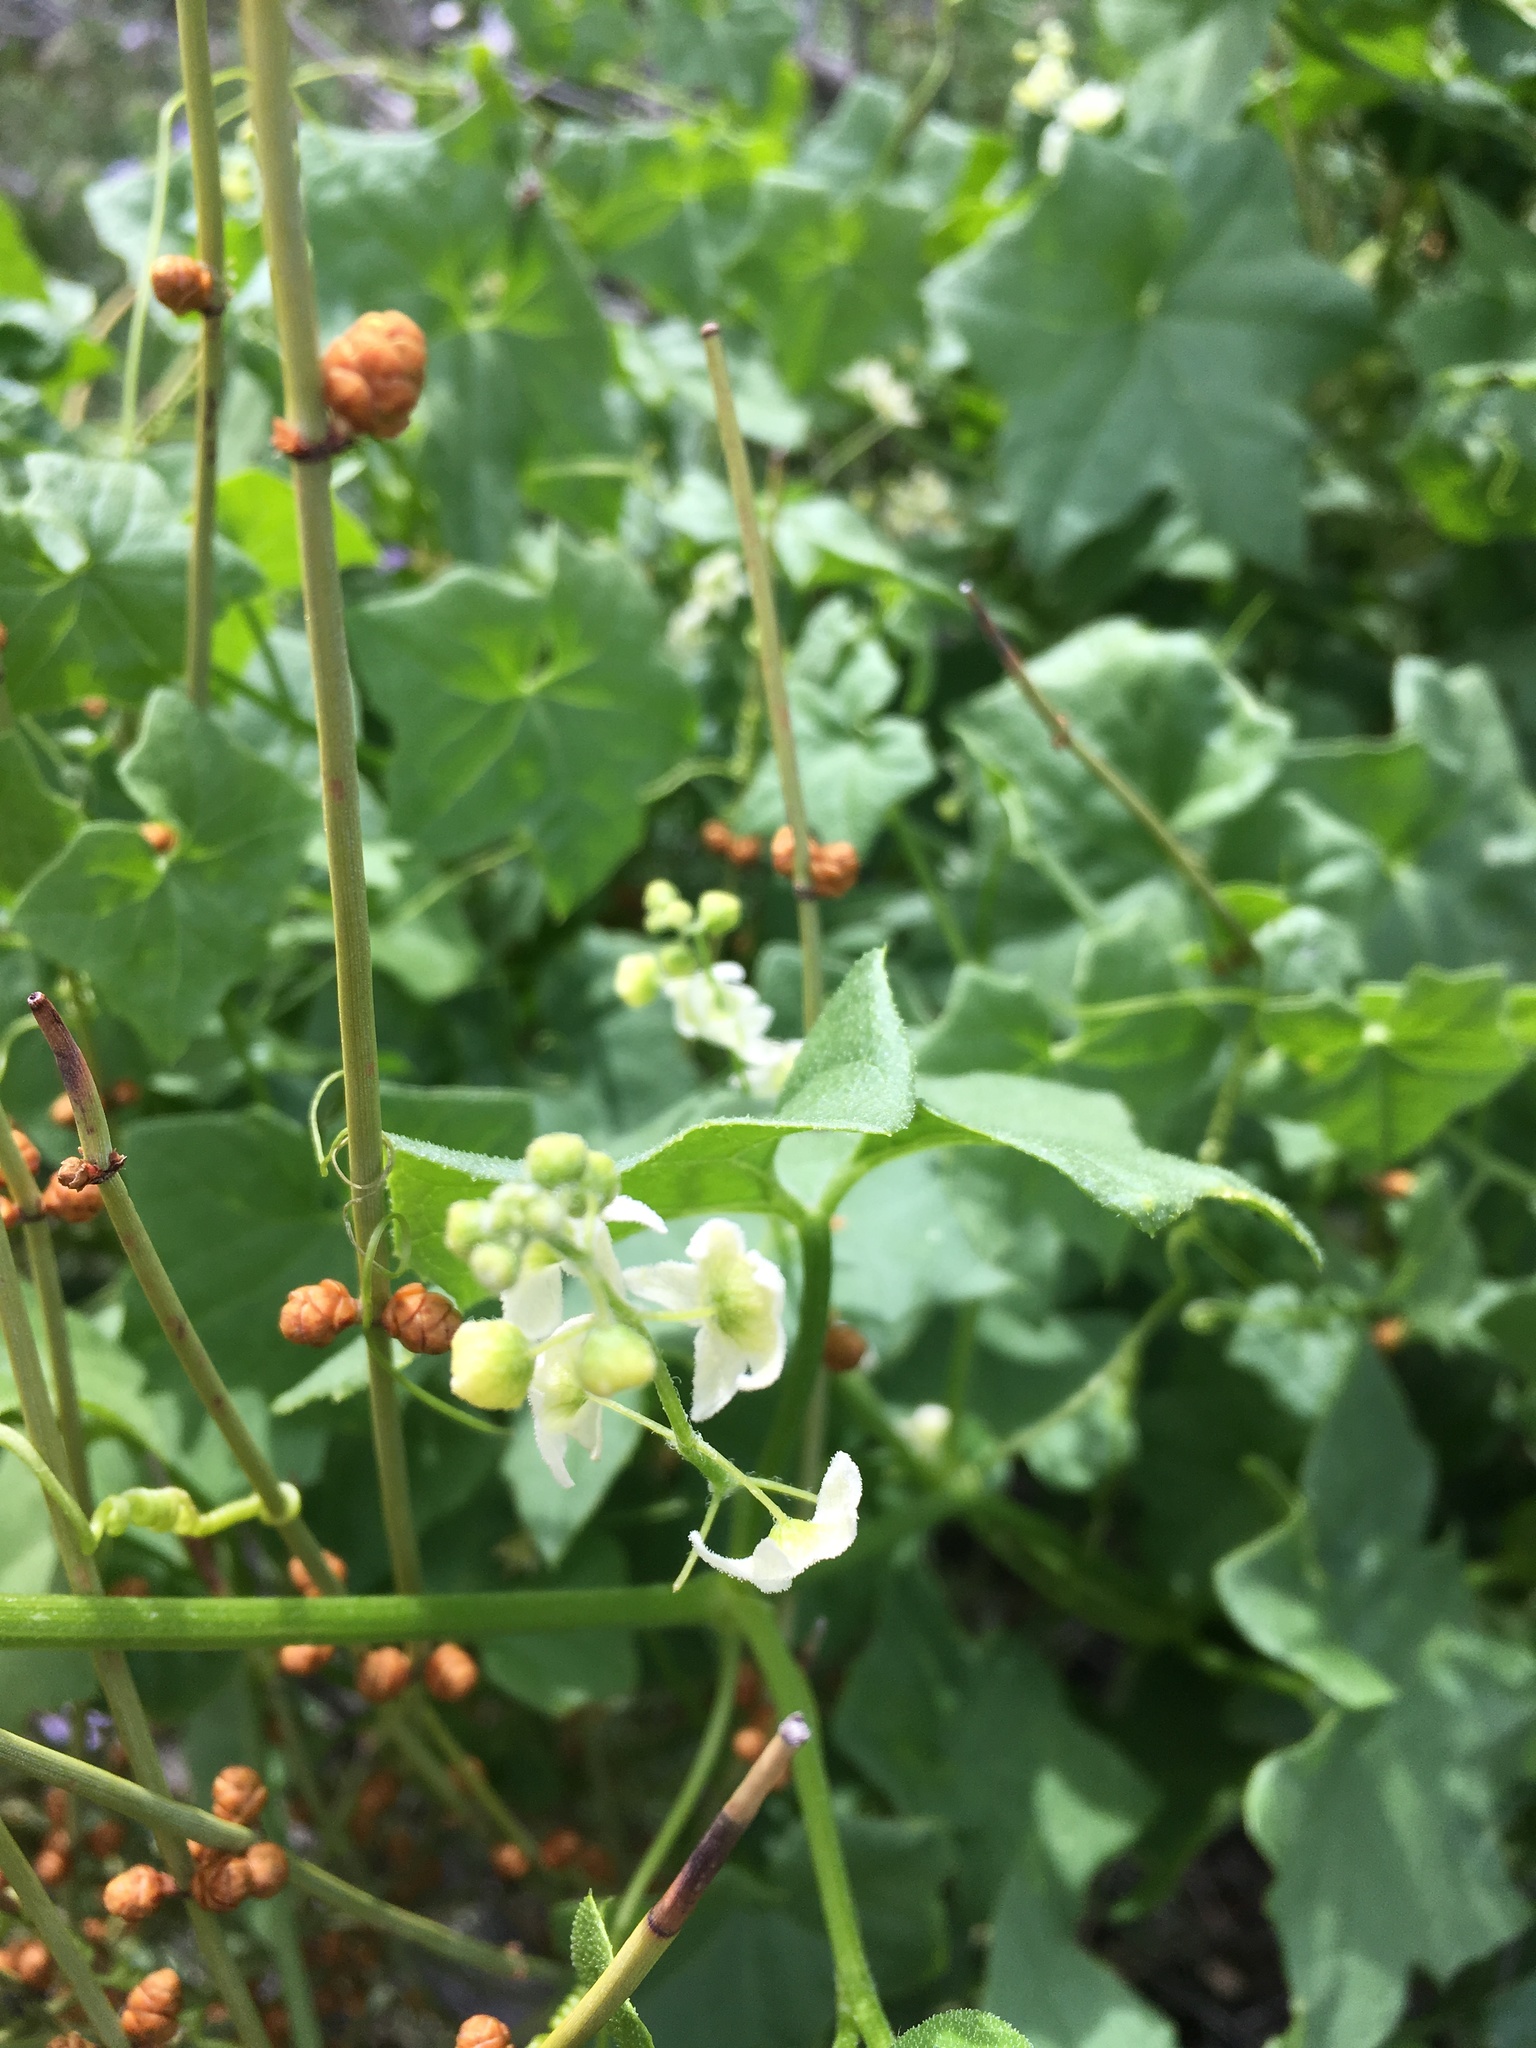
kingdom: Plantae
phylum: Tracheophyta
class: Magnoliopsida
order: Cucurbitales
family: Cucurbitaceae
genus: Marah
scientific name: Marah fabacea
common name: California manroot
